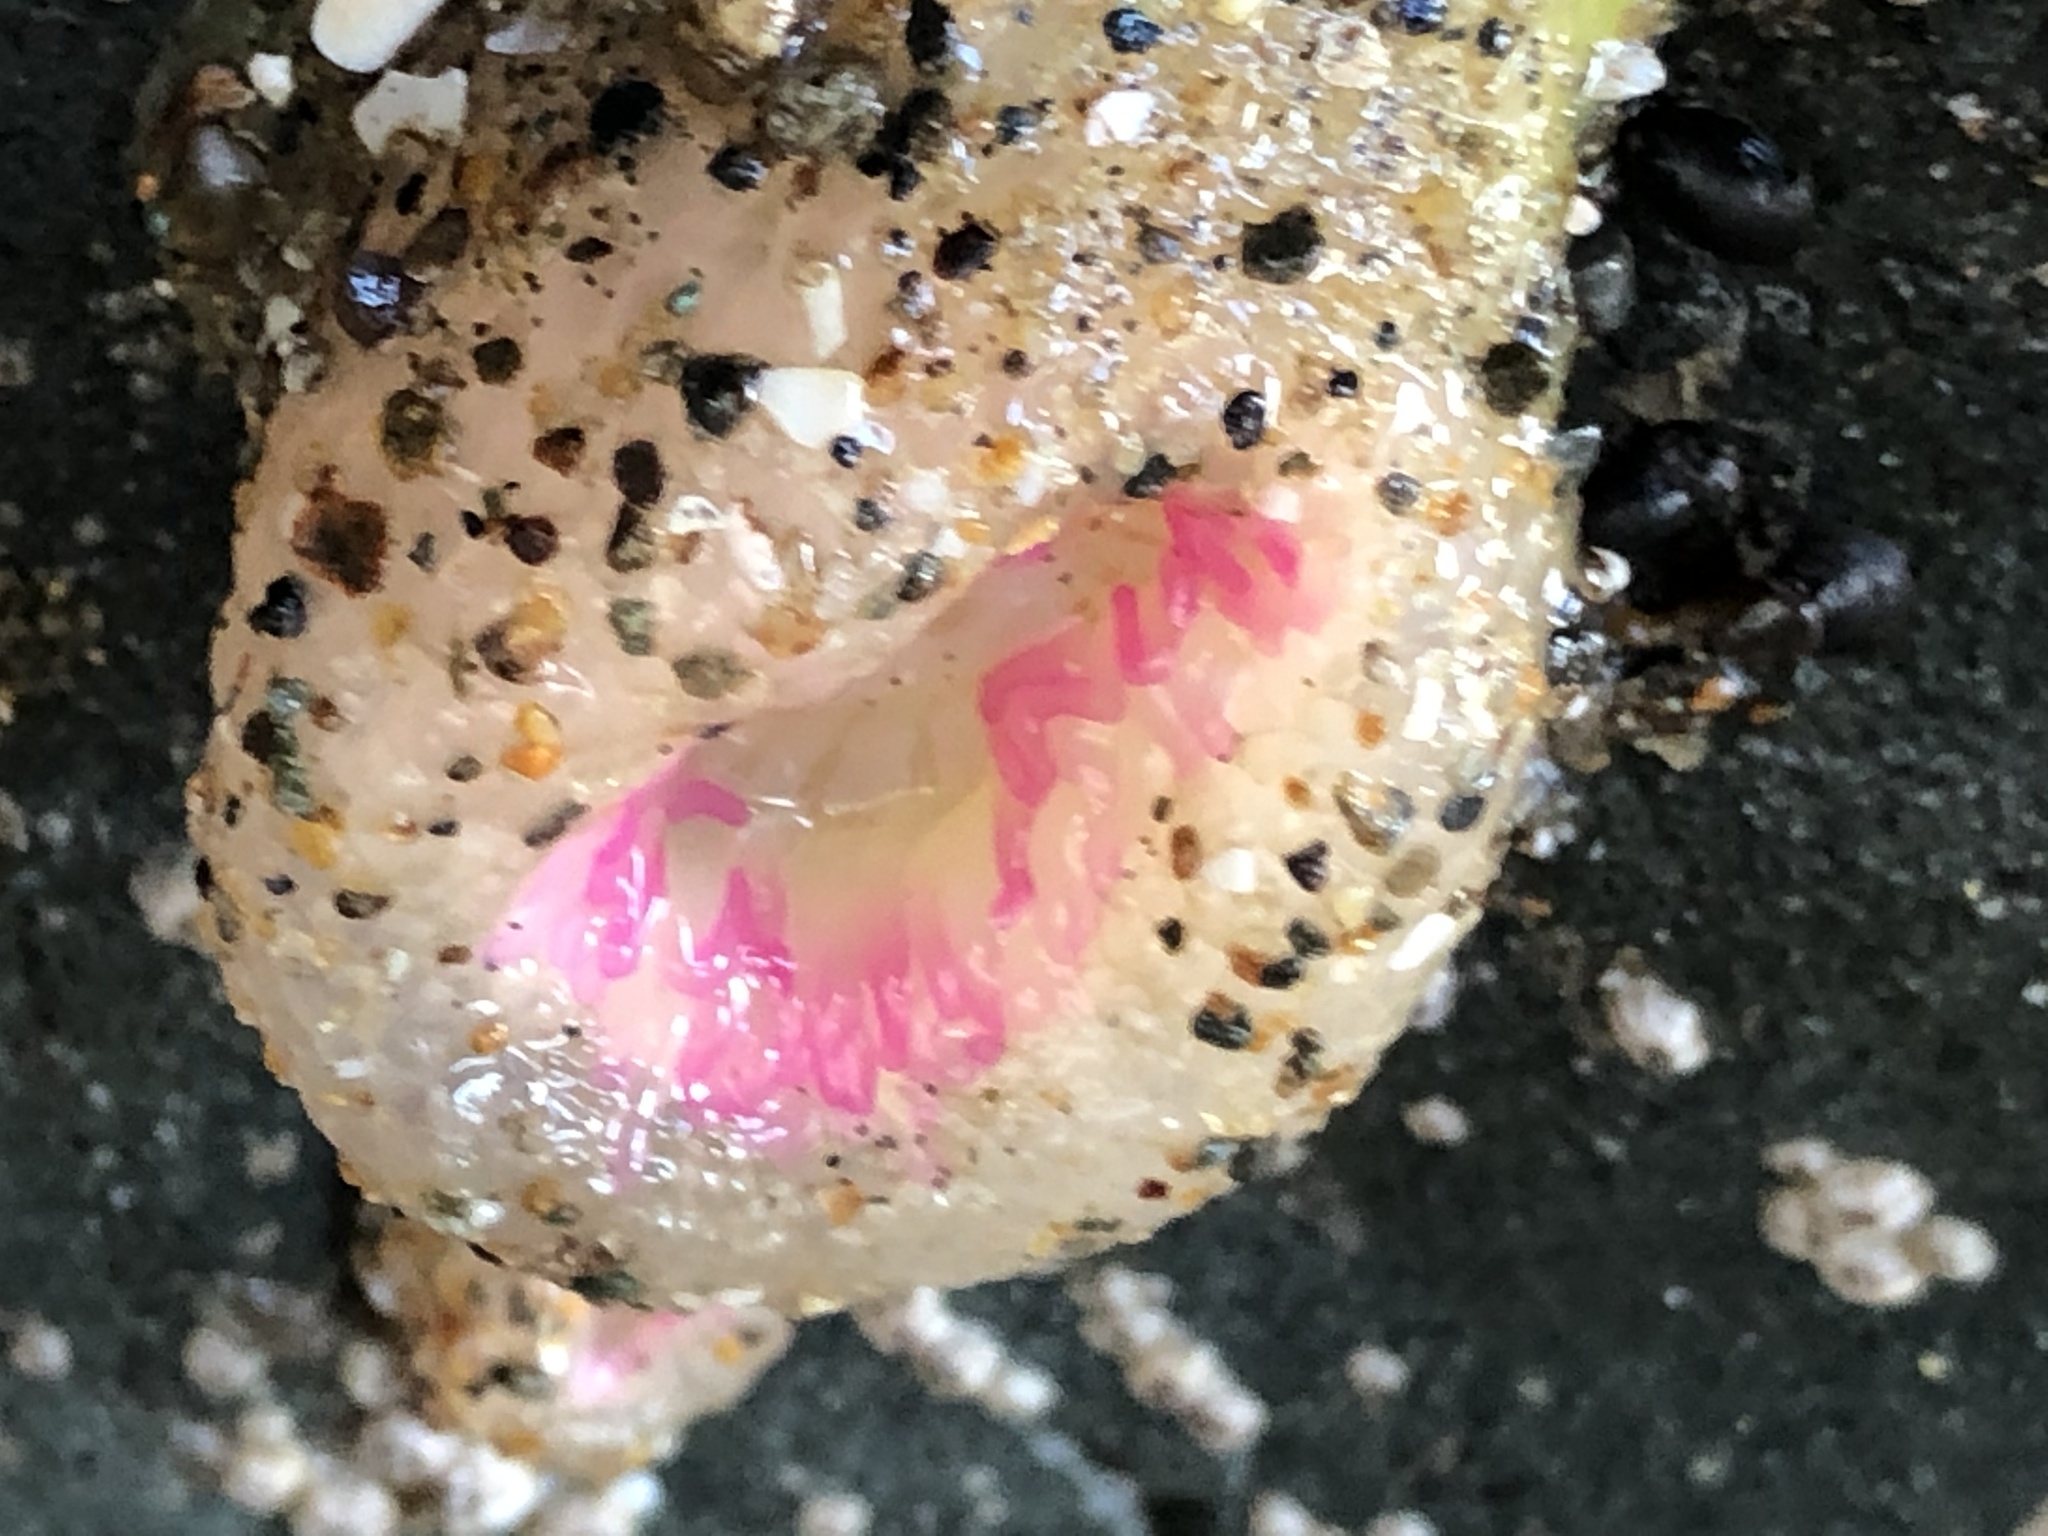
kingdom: Animalia
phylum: Cnidaria
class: Anthozoa
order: Actiniaria
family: Actiniidae
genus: Anthopleura
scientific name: Anthopleura elegantissima
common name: Clonal anemone
